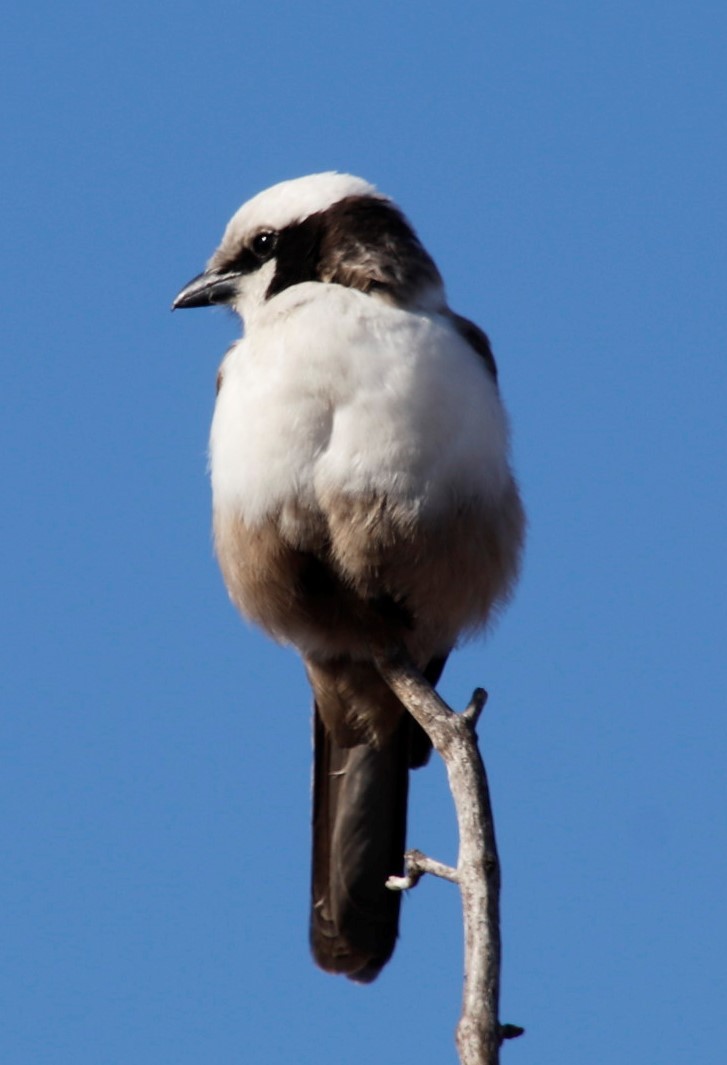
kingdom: Animalia
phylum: Chordata
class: Aves
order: Passeriformes
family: Laniidae
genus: Eurocephalus
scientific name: Eurocephalus anguitimens
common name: Southern white-crowned shrike
